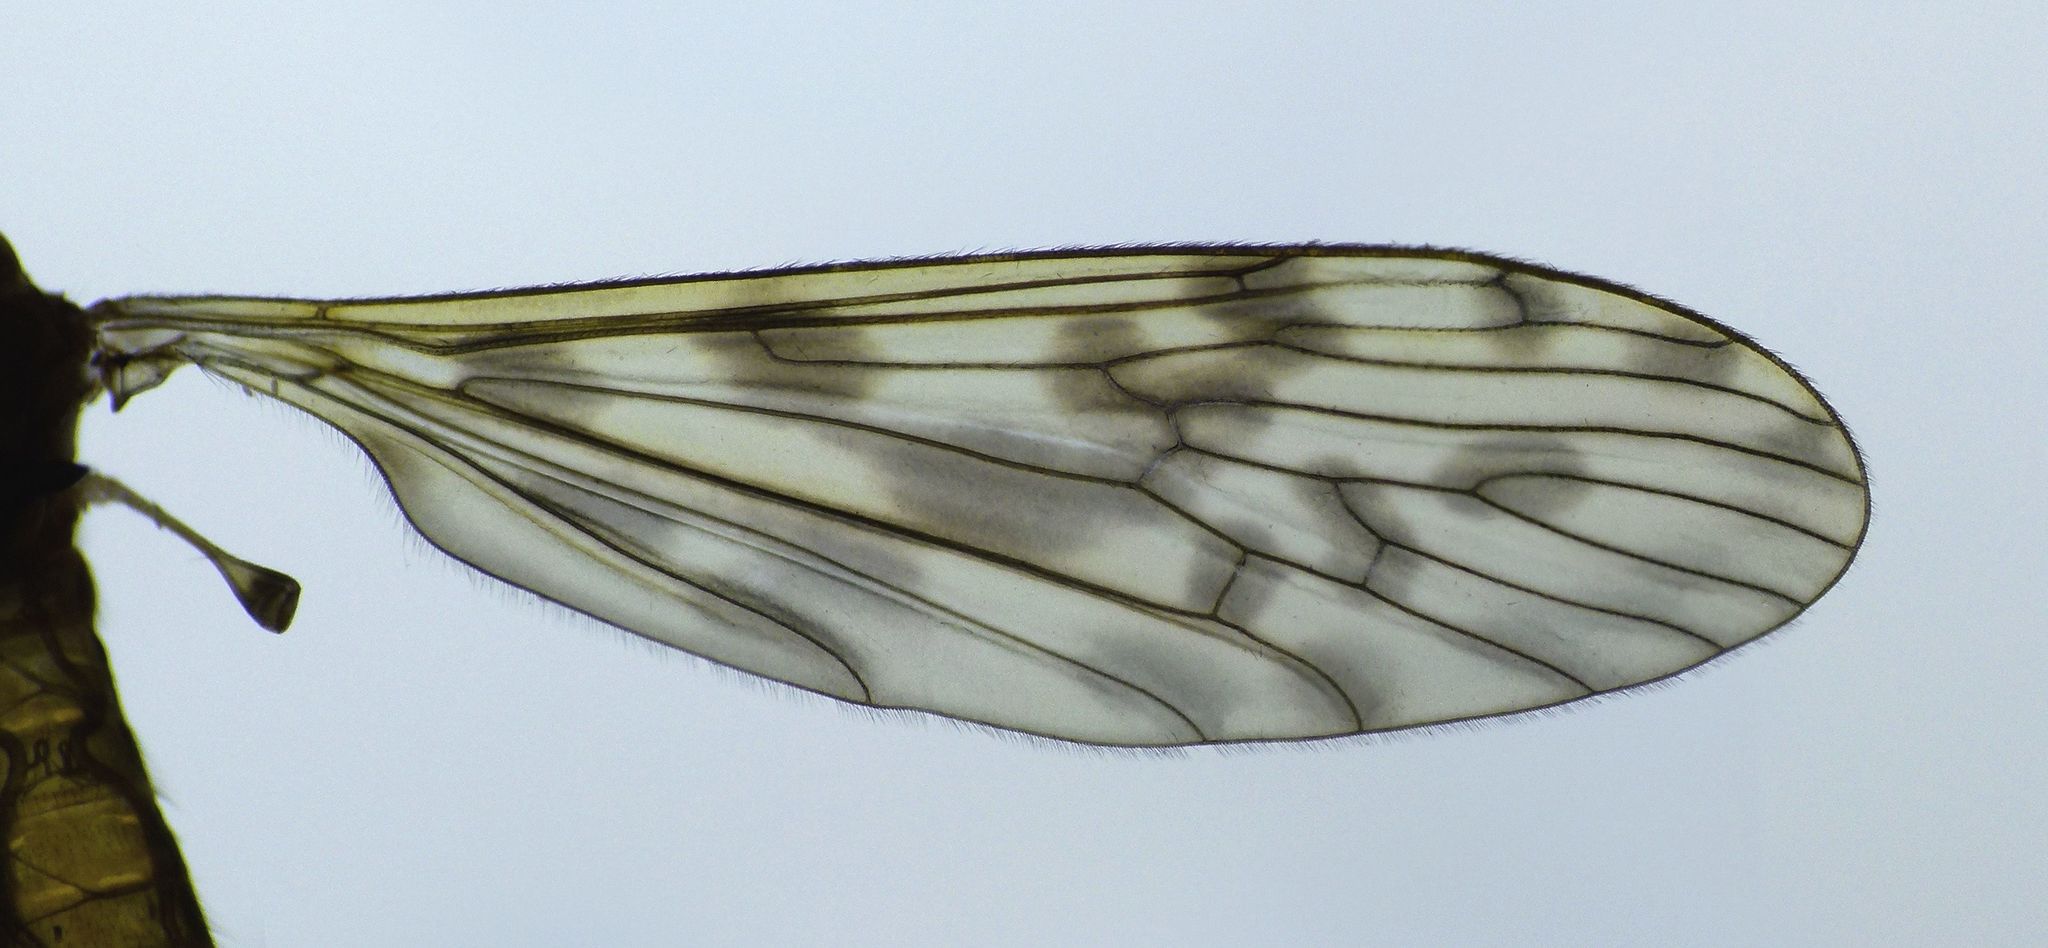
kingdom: Animalia
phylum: Arthropoda
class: Insecta
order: Diptera
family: Limoniidae
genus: Austrolimnophila
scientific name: Austrolimnophila chrysorrhoea
